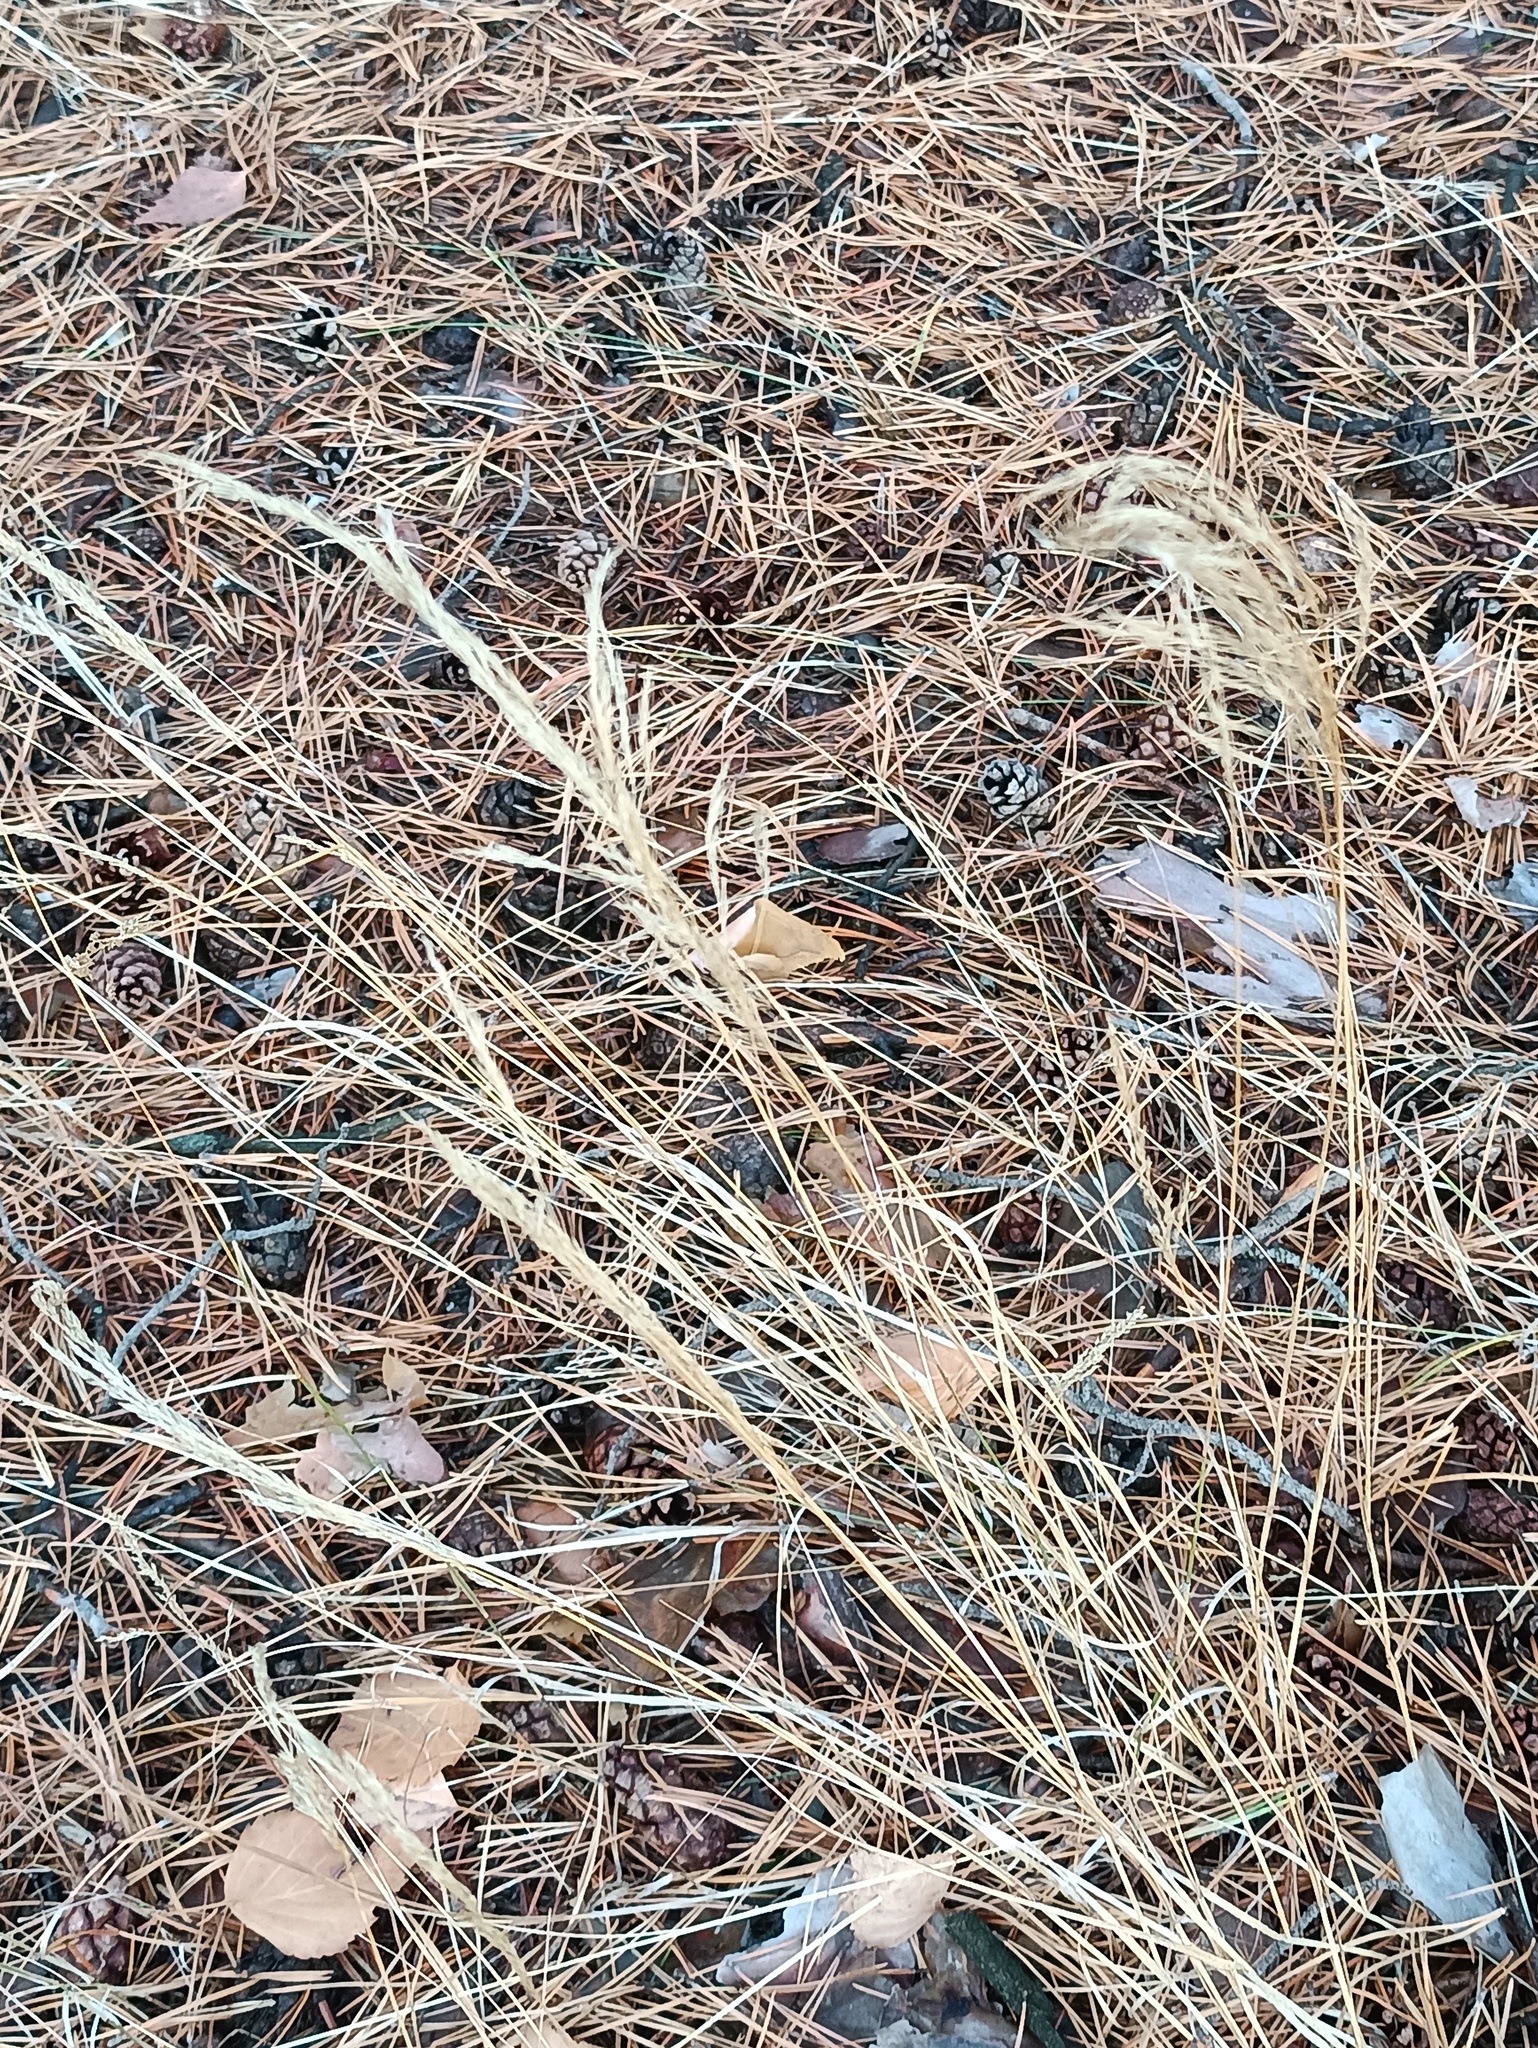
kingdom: Plantae
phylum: Tracheophyta
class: Liliopsida
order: Poales
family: Poaceae
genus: Calamagrostis
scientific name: Calamagrostis epigejos
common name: Wood small-reed
